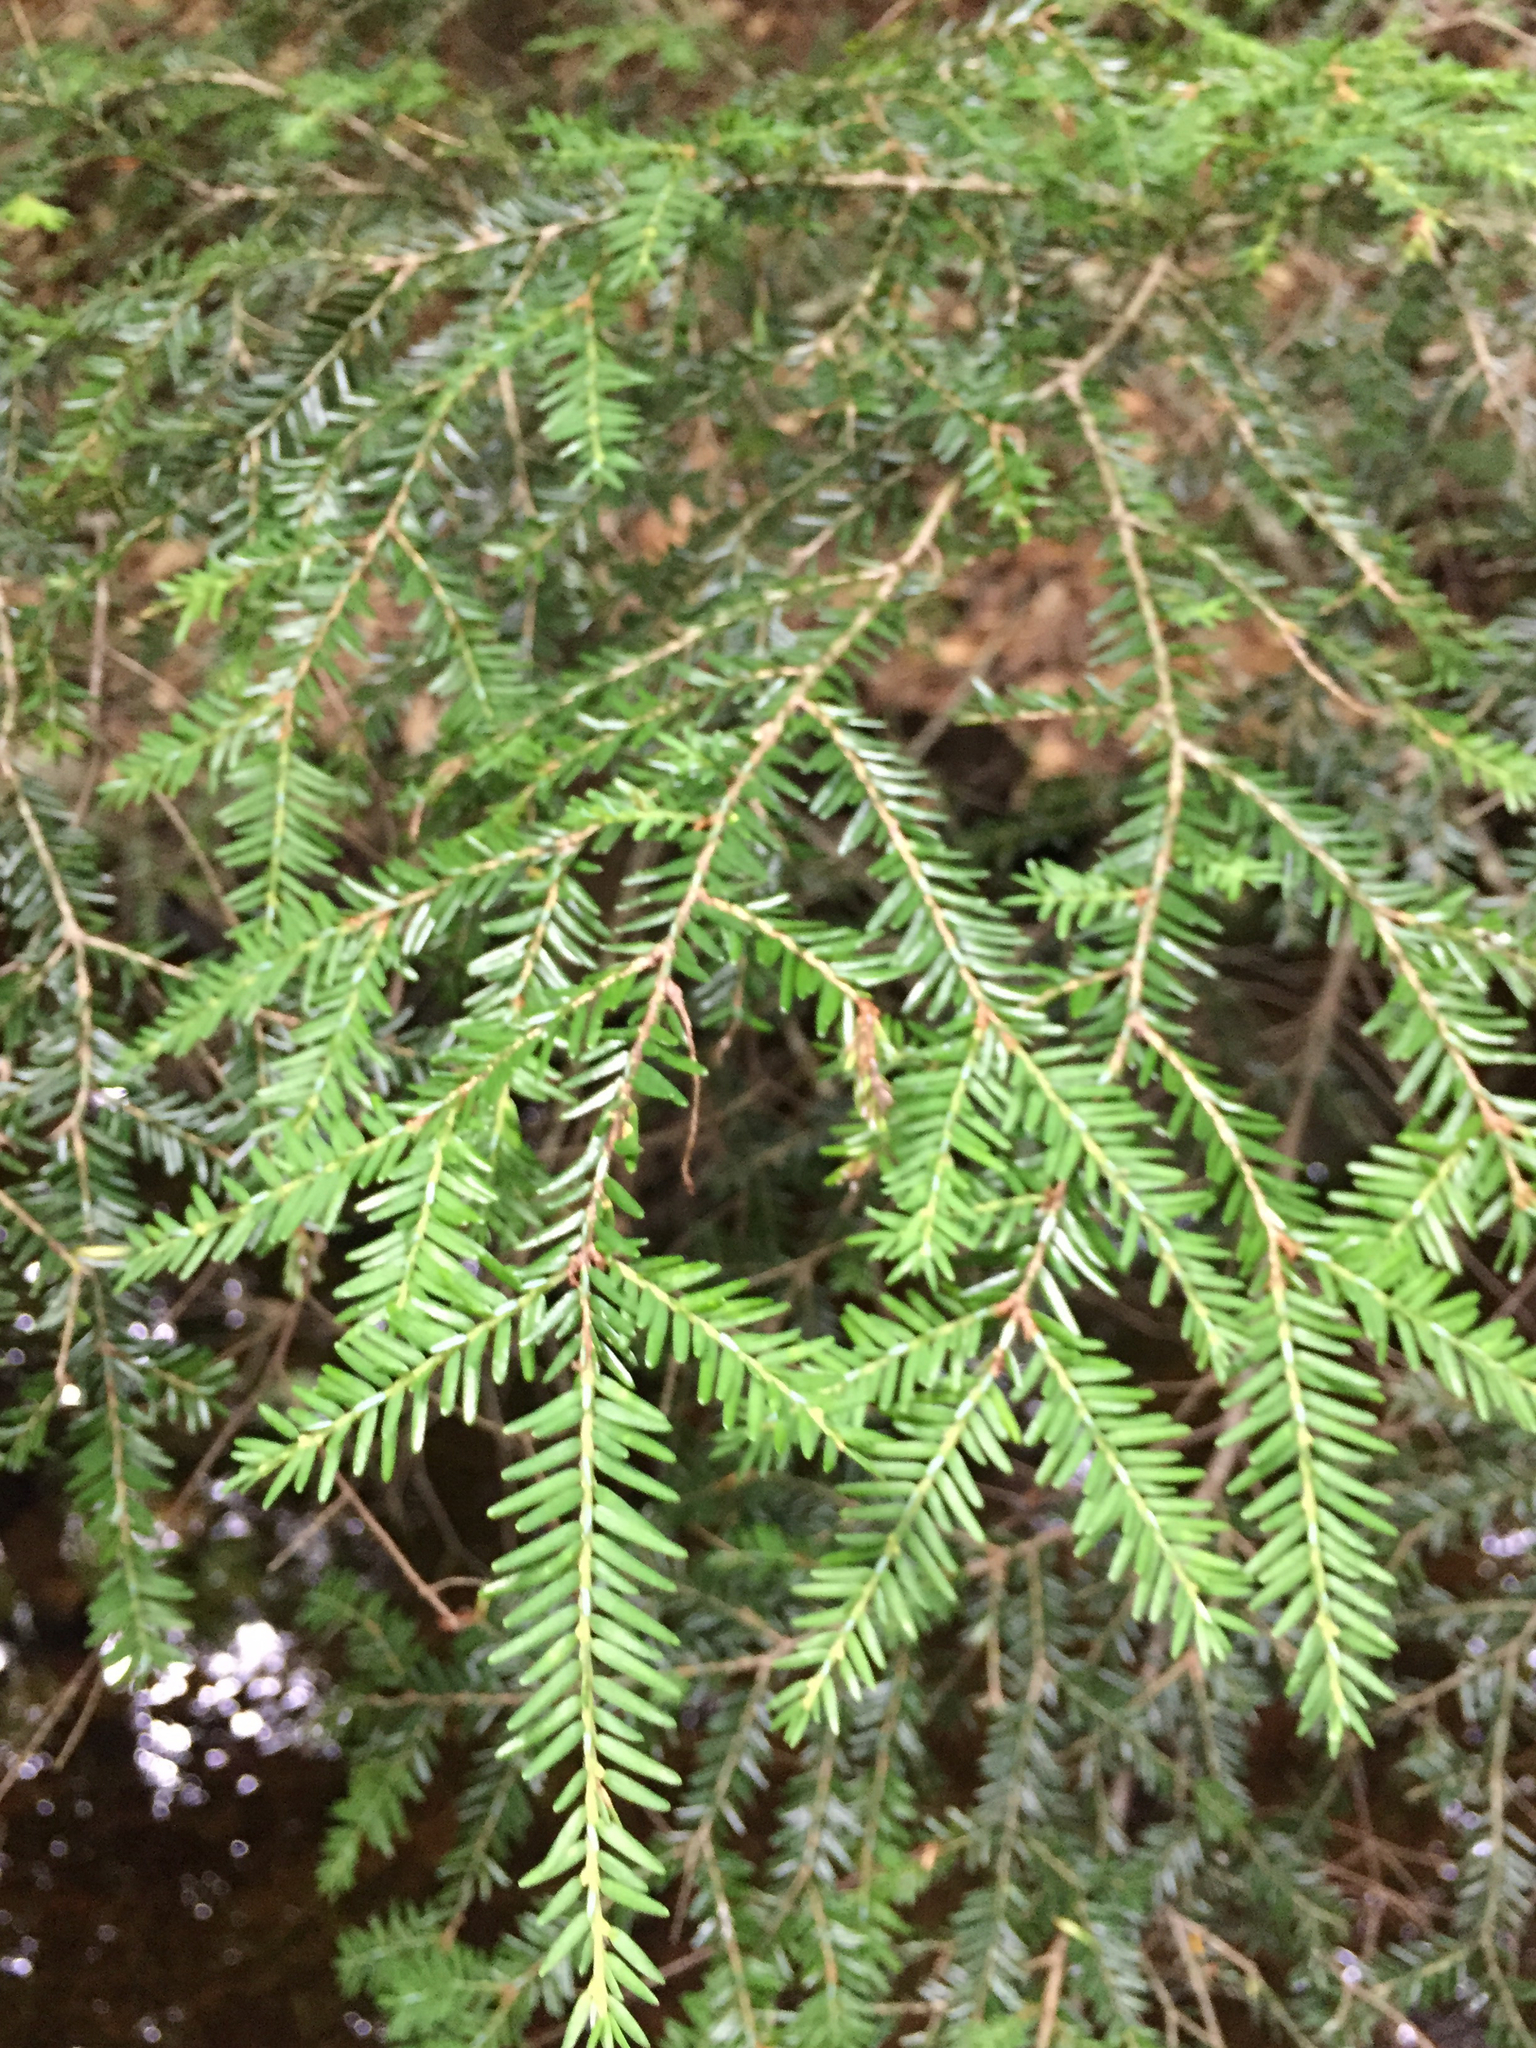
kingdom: Plantae
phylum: Tracheophyta
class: Pinopsida
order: Pinales
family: Pinaceae
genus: Tsuga
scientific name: Tsuga canadensis
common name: Eastern hemlock
